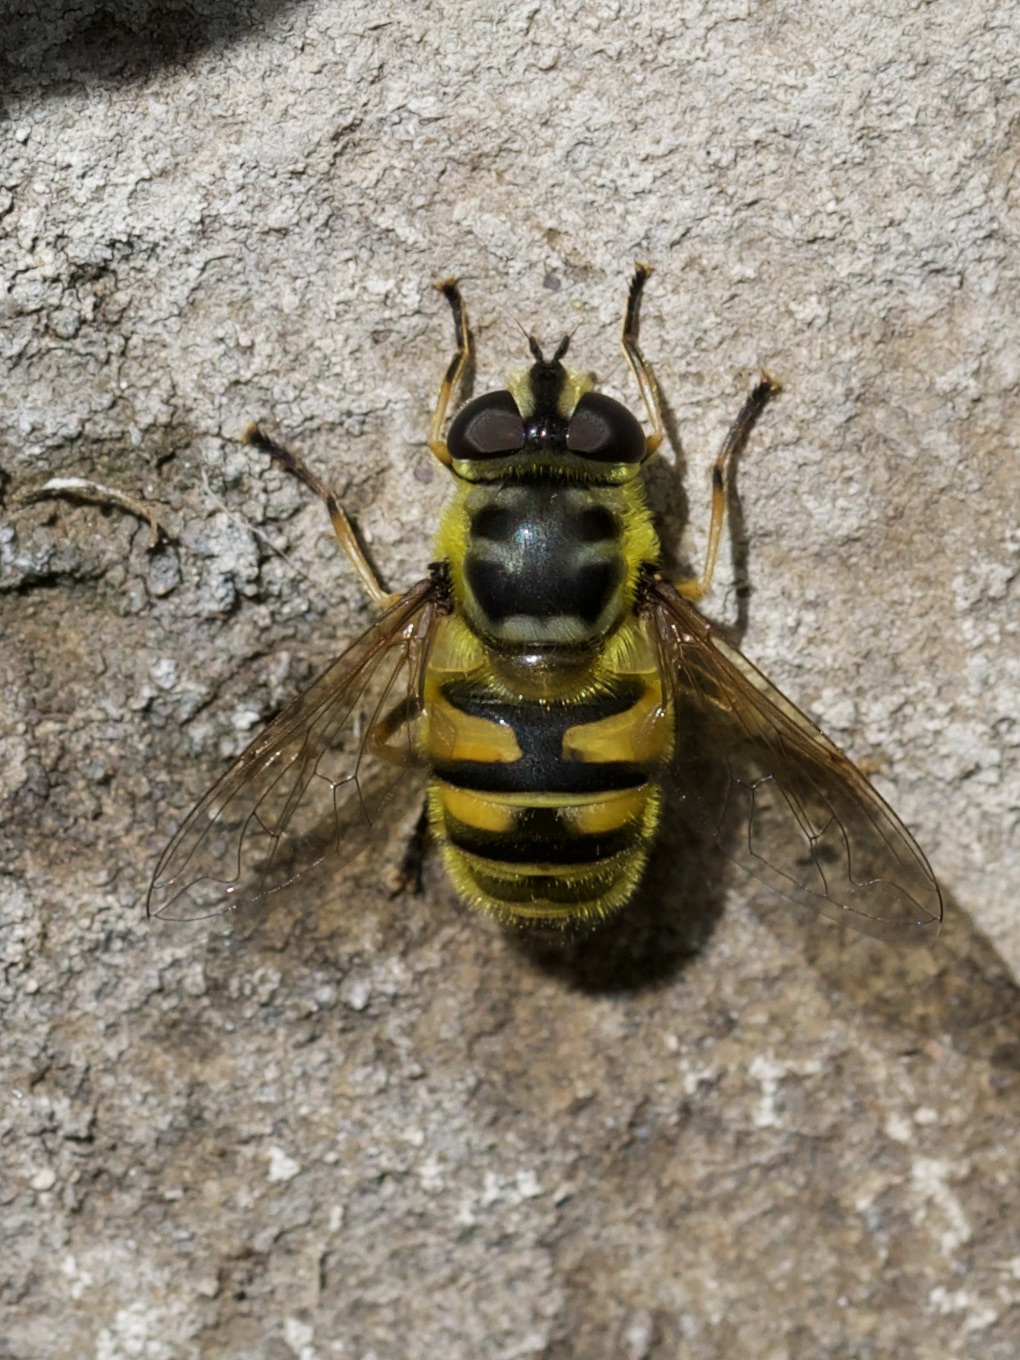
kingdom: Animalia
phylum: Arthropoda
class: Insecta
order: Diptera
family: Syrphidae
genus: Myathropa
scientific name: Myathropa florea
